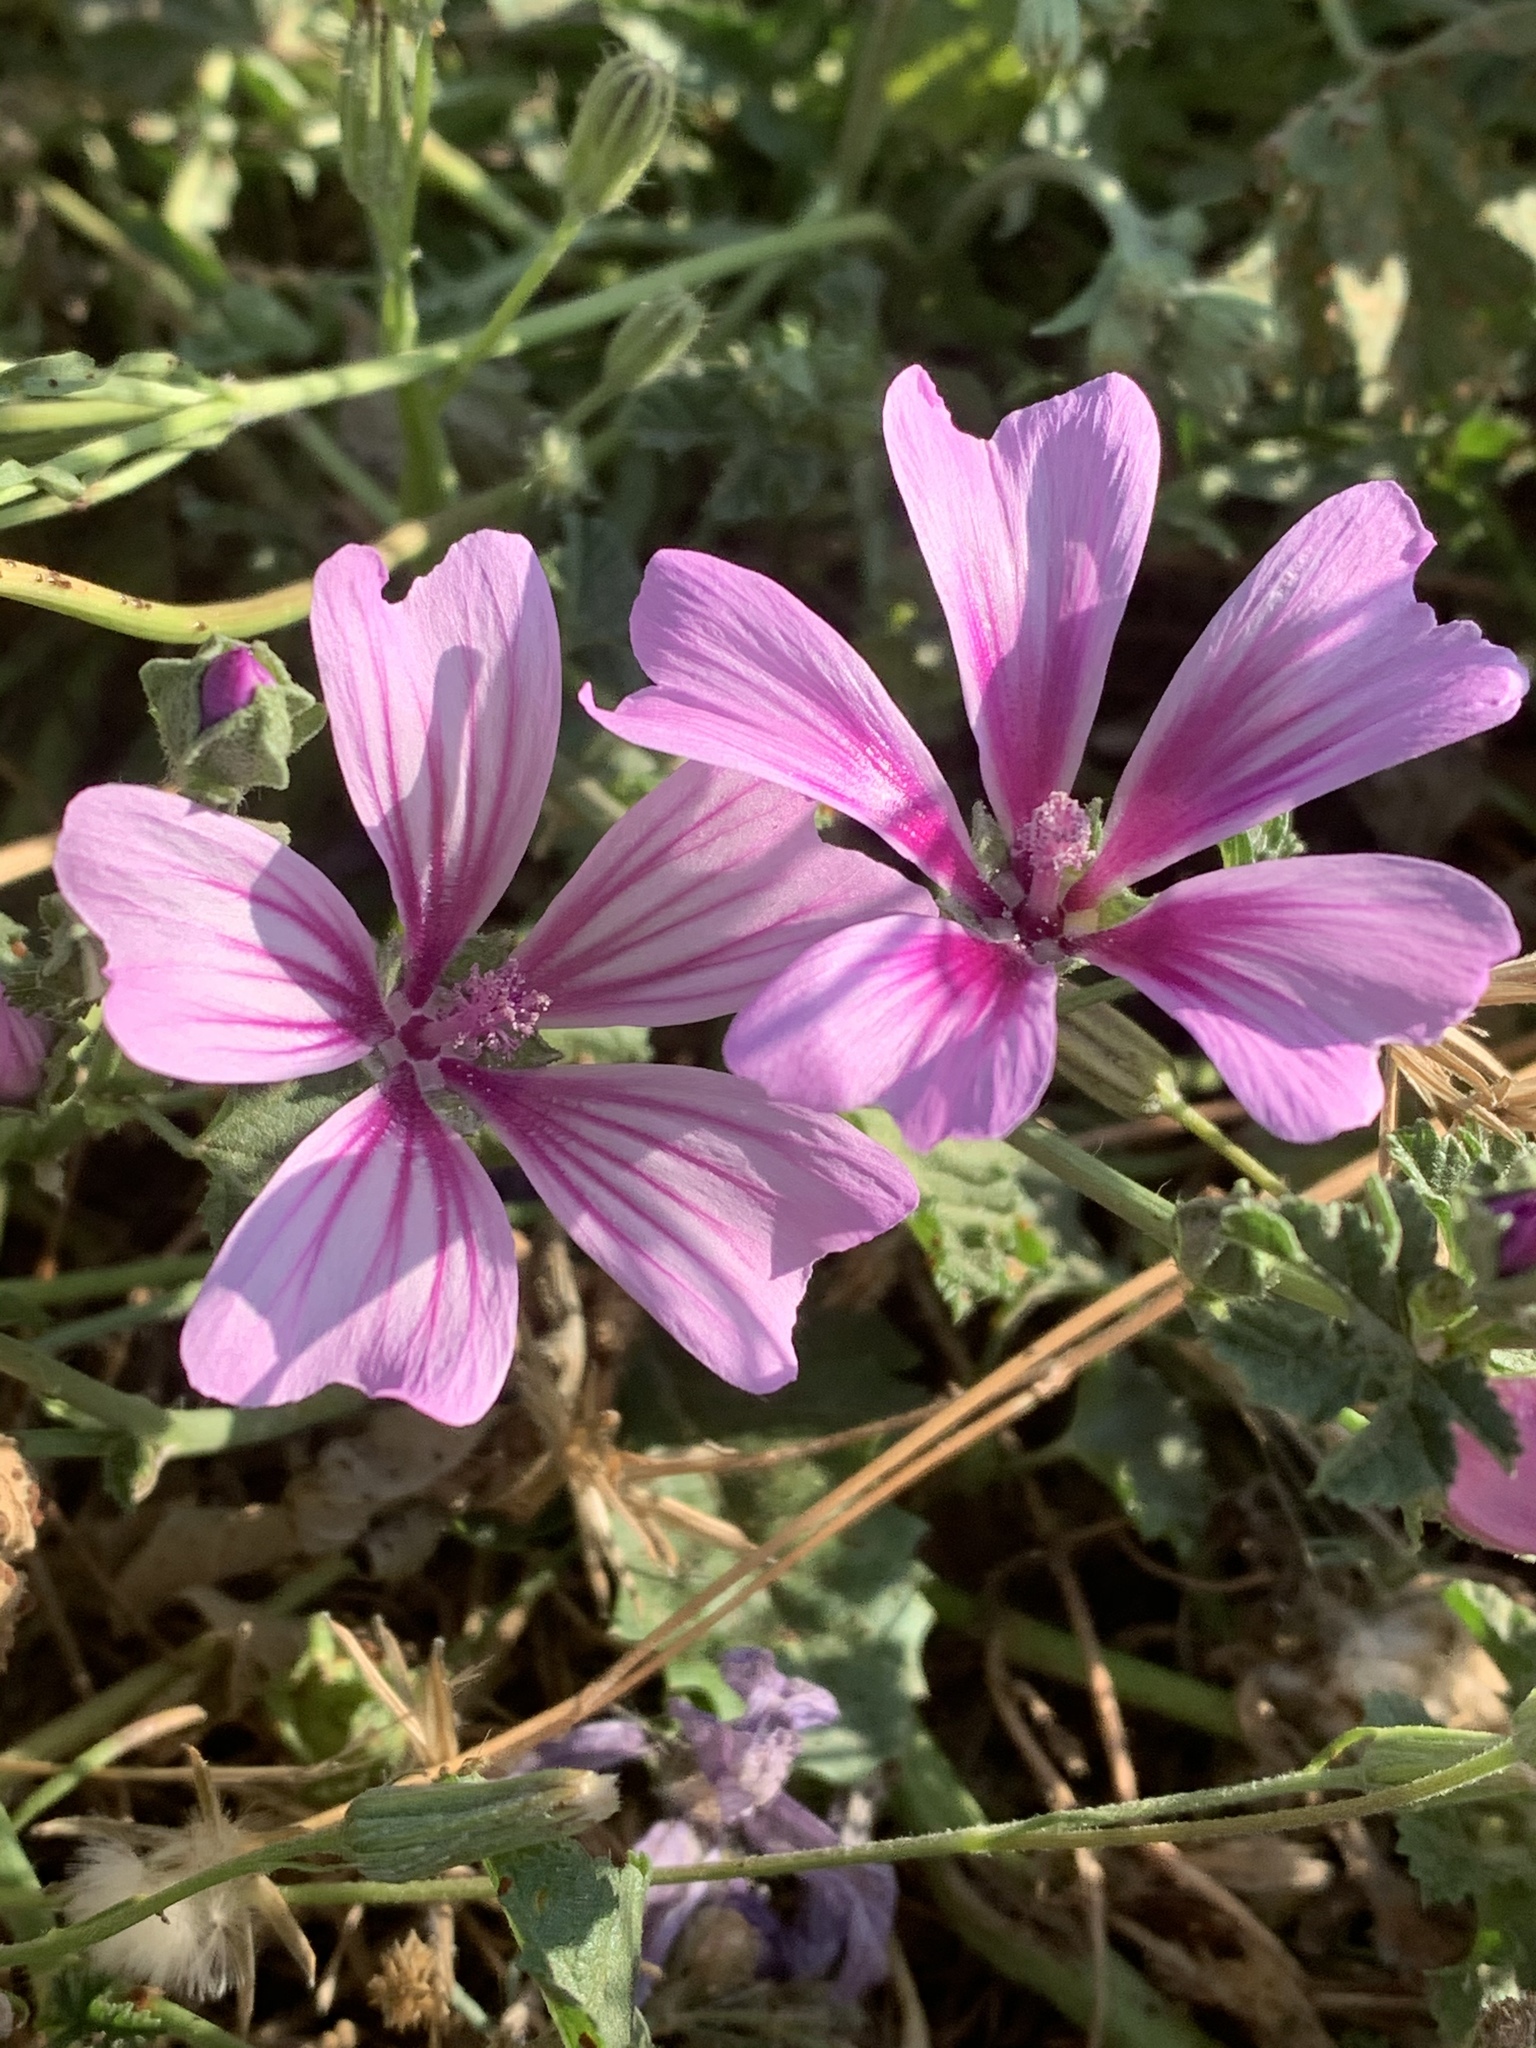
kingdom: Plantae
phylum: Tracheophyta
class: Magnoliopsida
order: Malvales
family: Malvaceae
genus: Malva
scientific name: Malva sylvestris
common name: Common mallow
